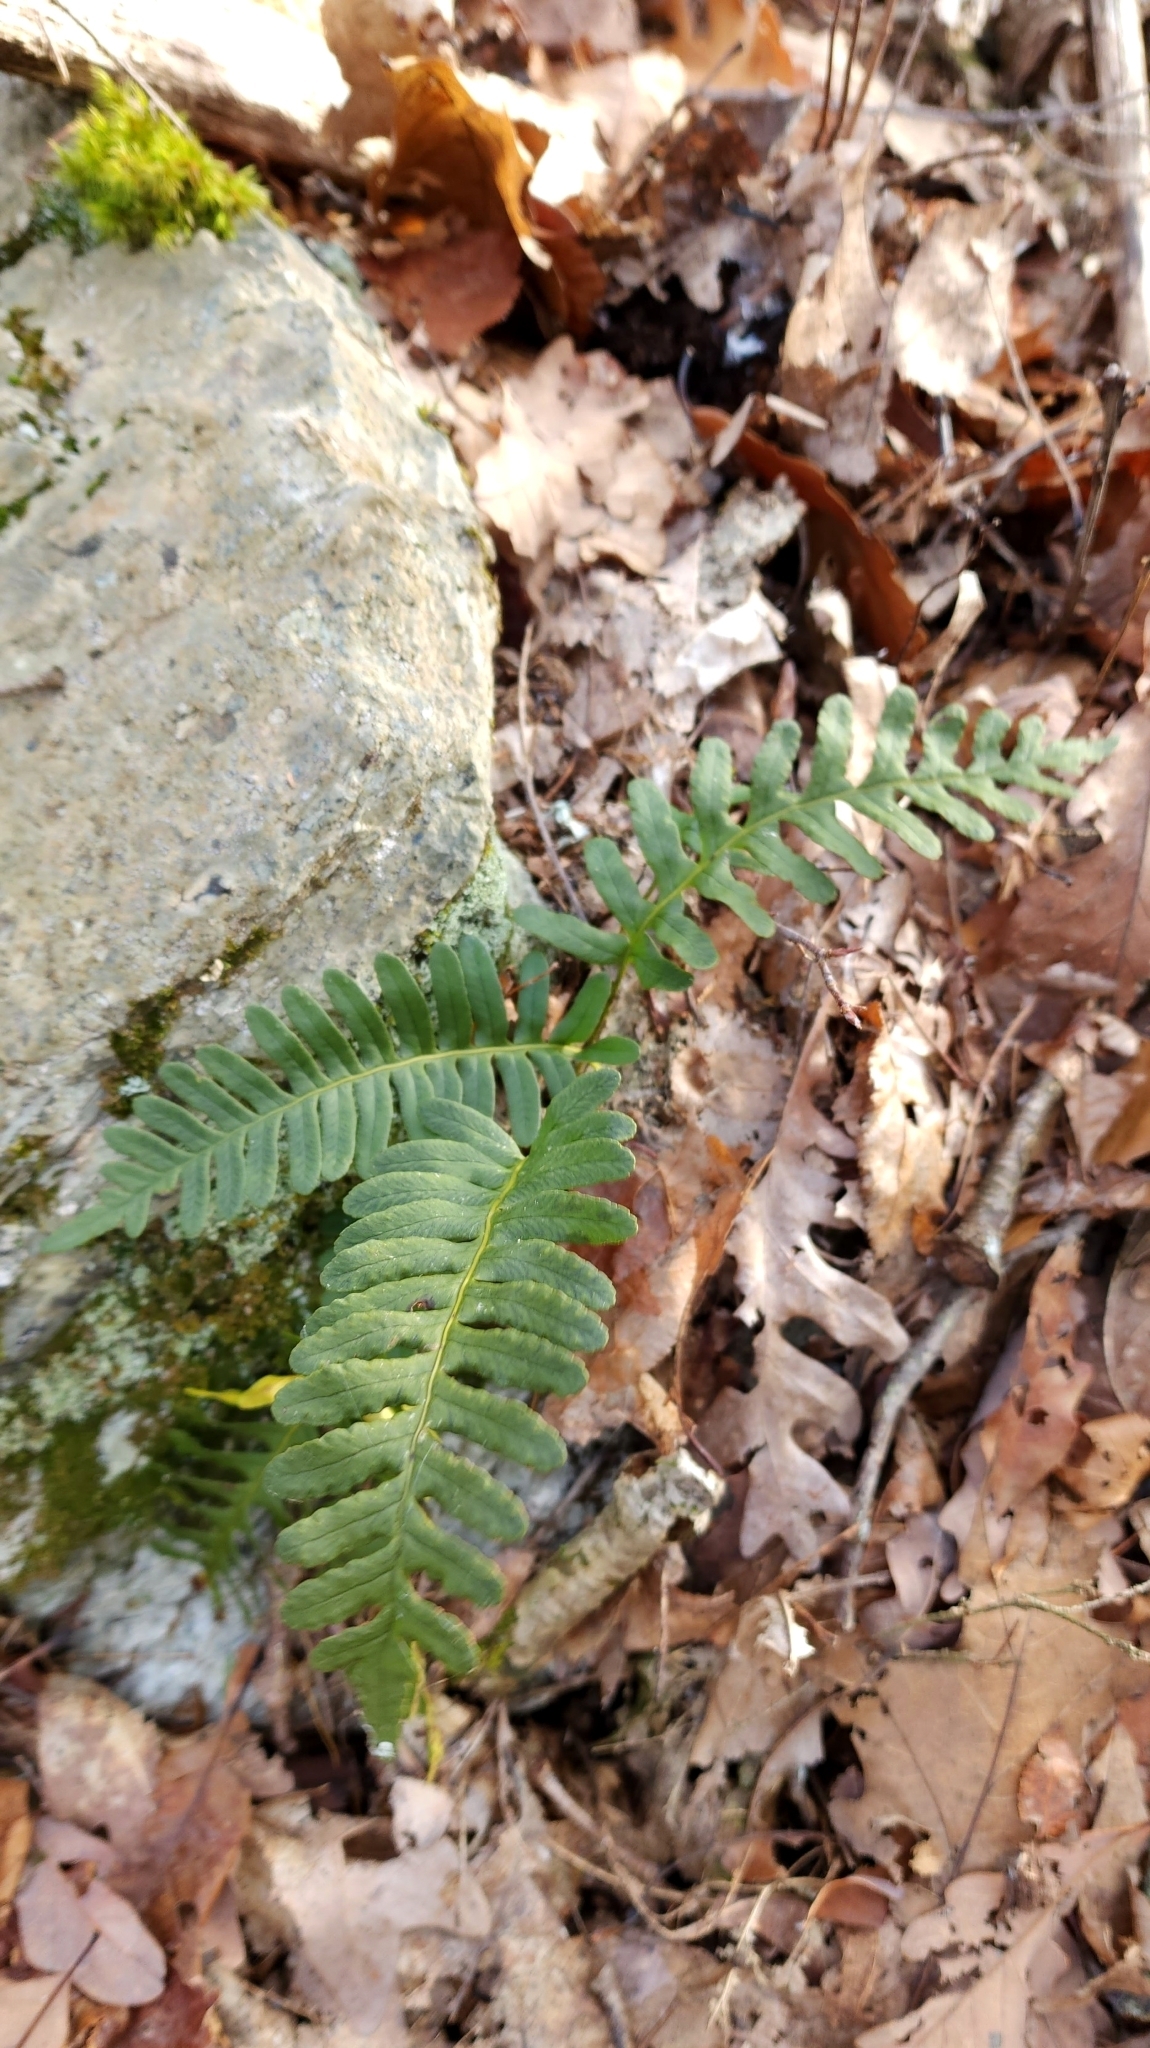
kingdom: Plantae
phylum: Tracheophyta
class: Polypodiopsida
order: Polypodiales
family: Polypodiaceae
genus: Polypodium
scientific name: Polypodium virginianum
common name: American wall fern
